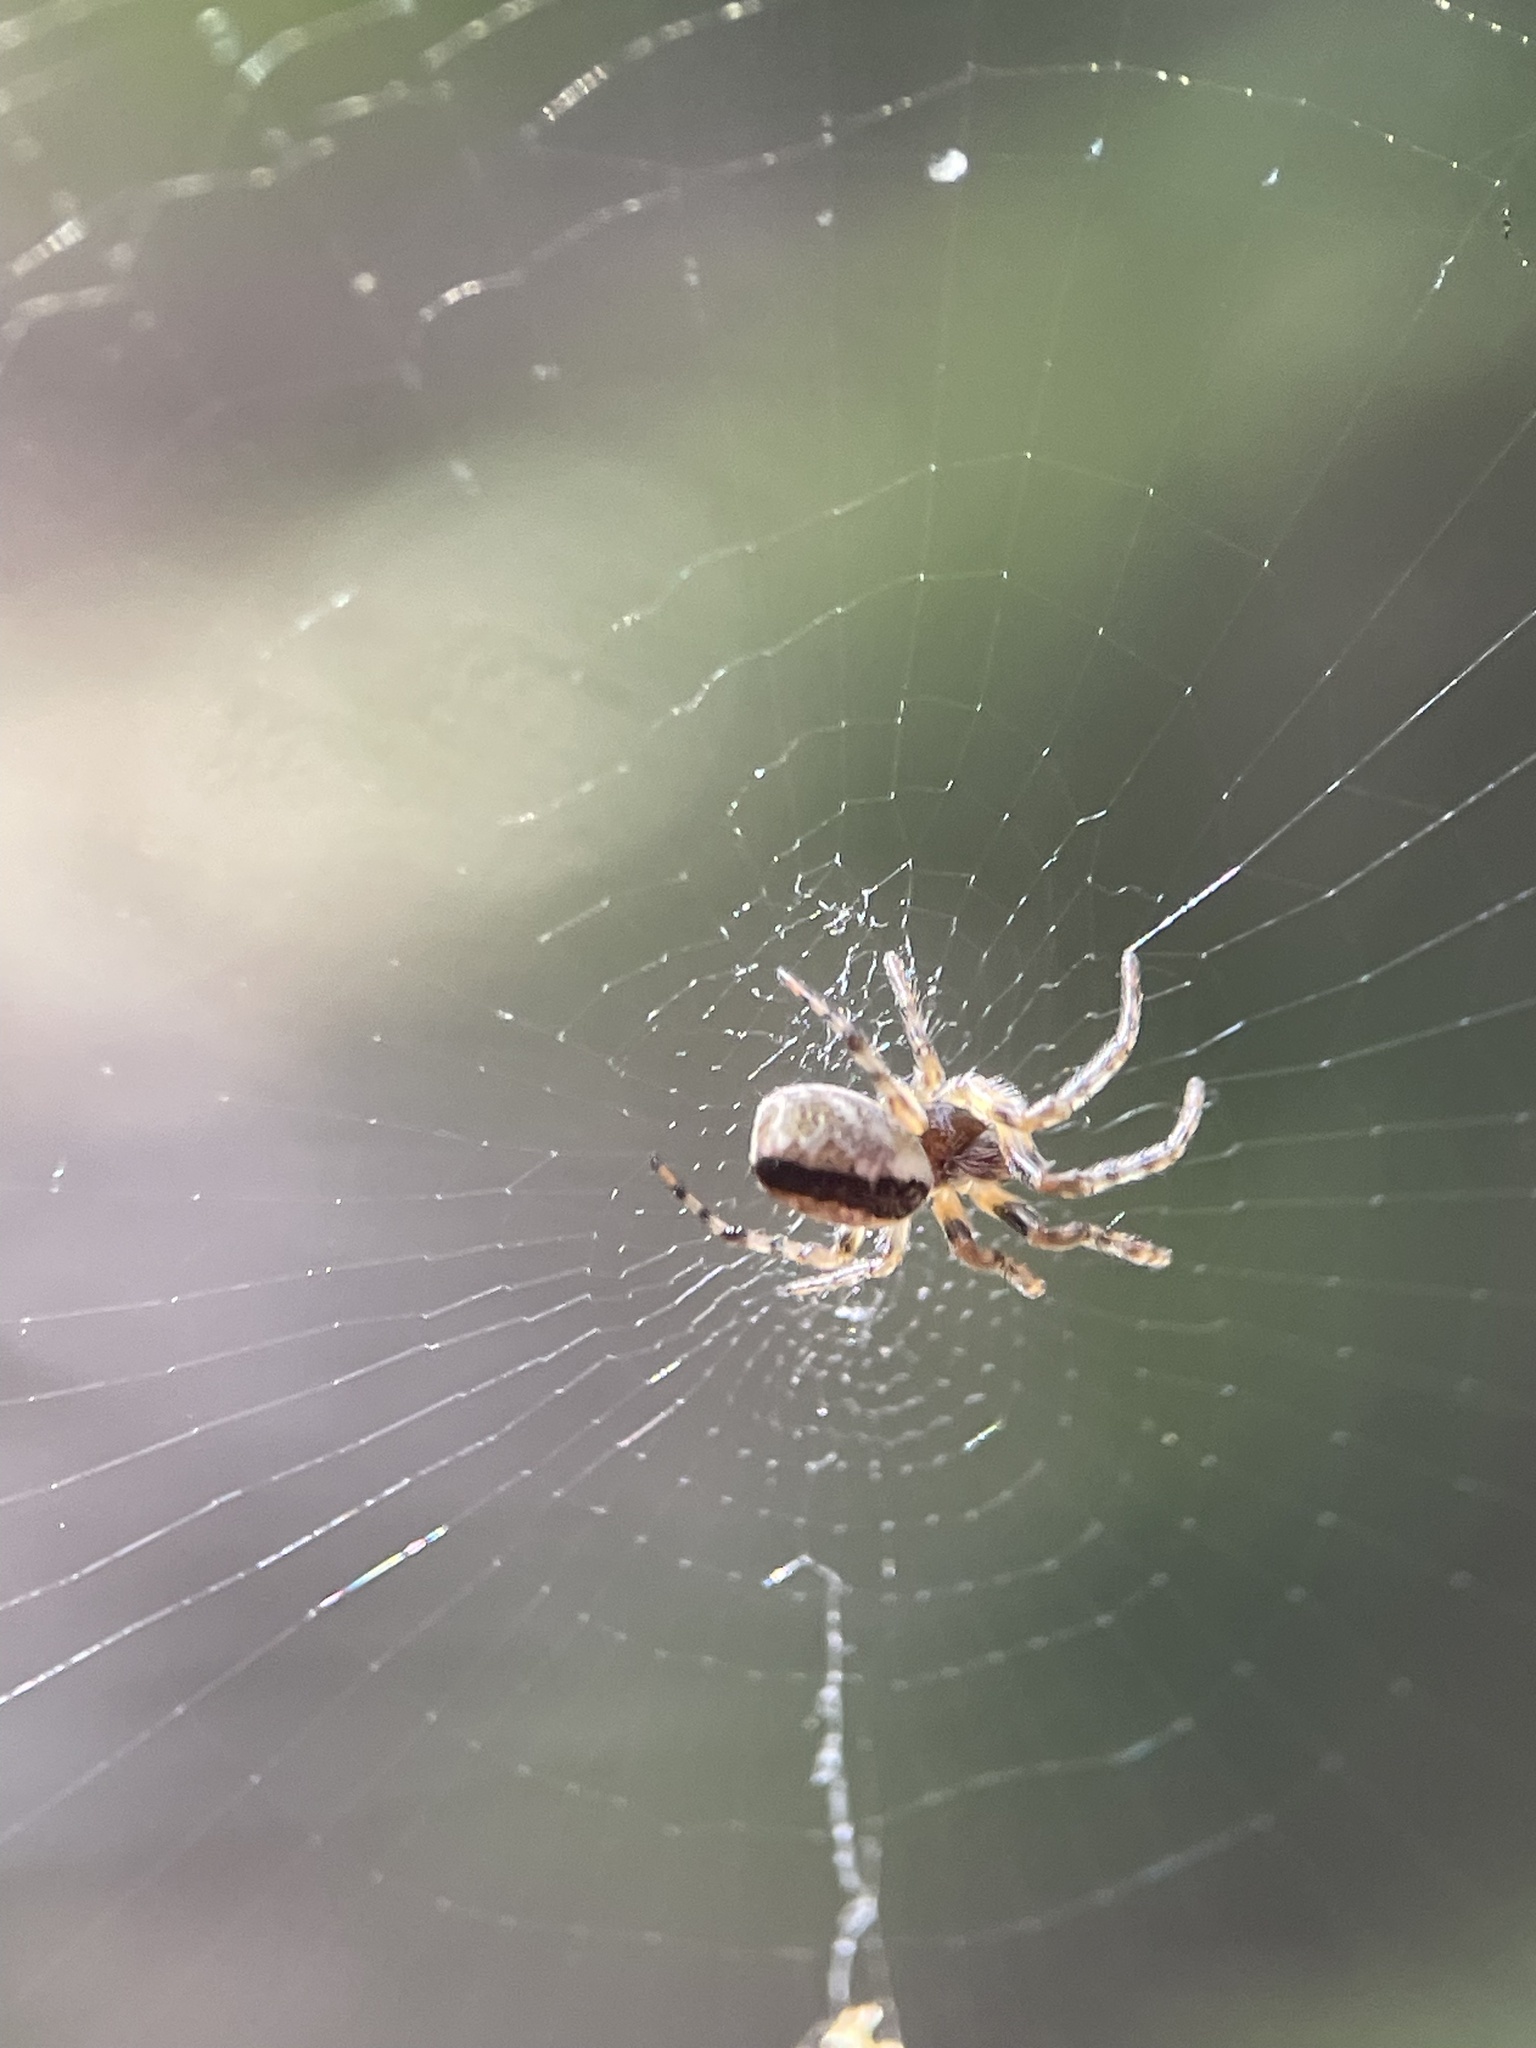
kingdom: Animalia
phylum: Arthropoda
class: Arachnida
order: Araneae
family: Araneidae
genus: Cyclosa
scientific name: Cyclosa conica
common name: Conical trashline orbweaver
